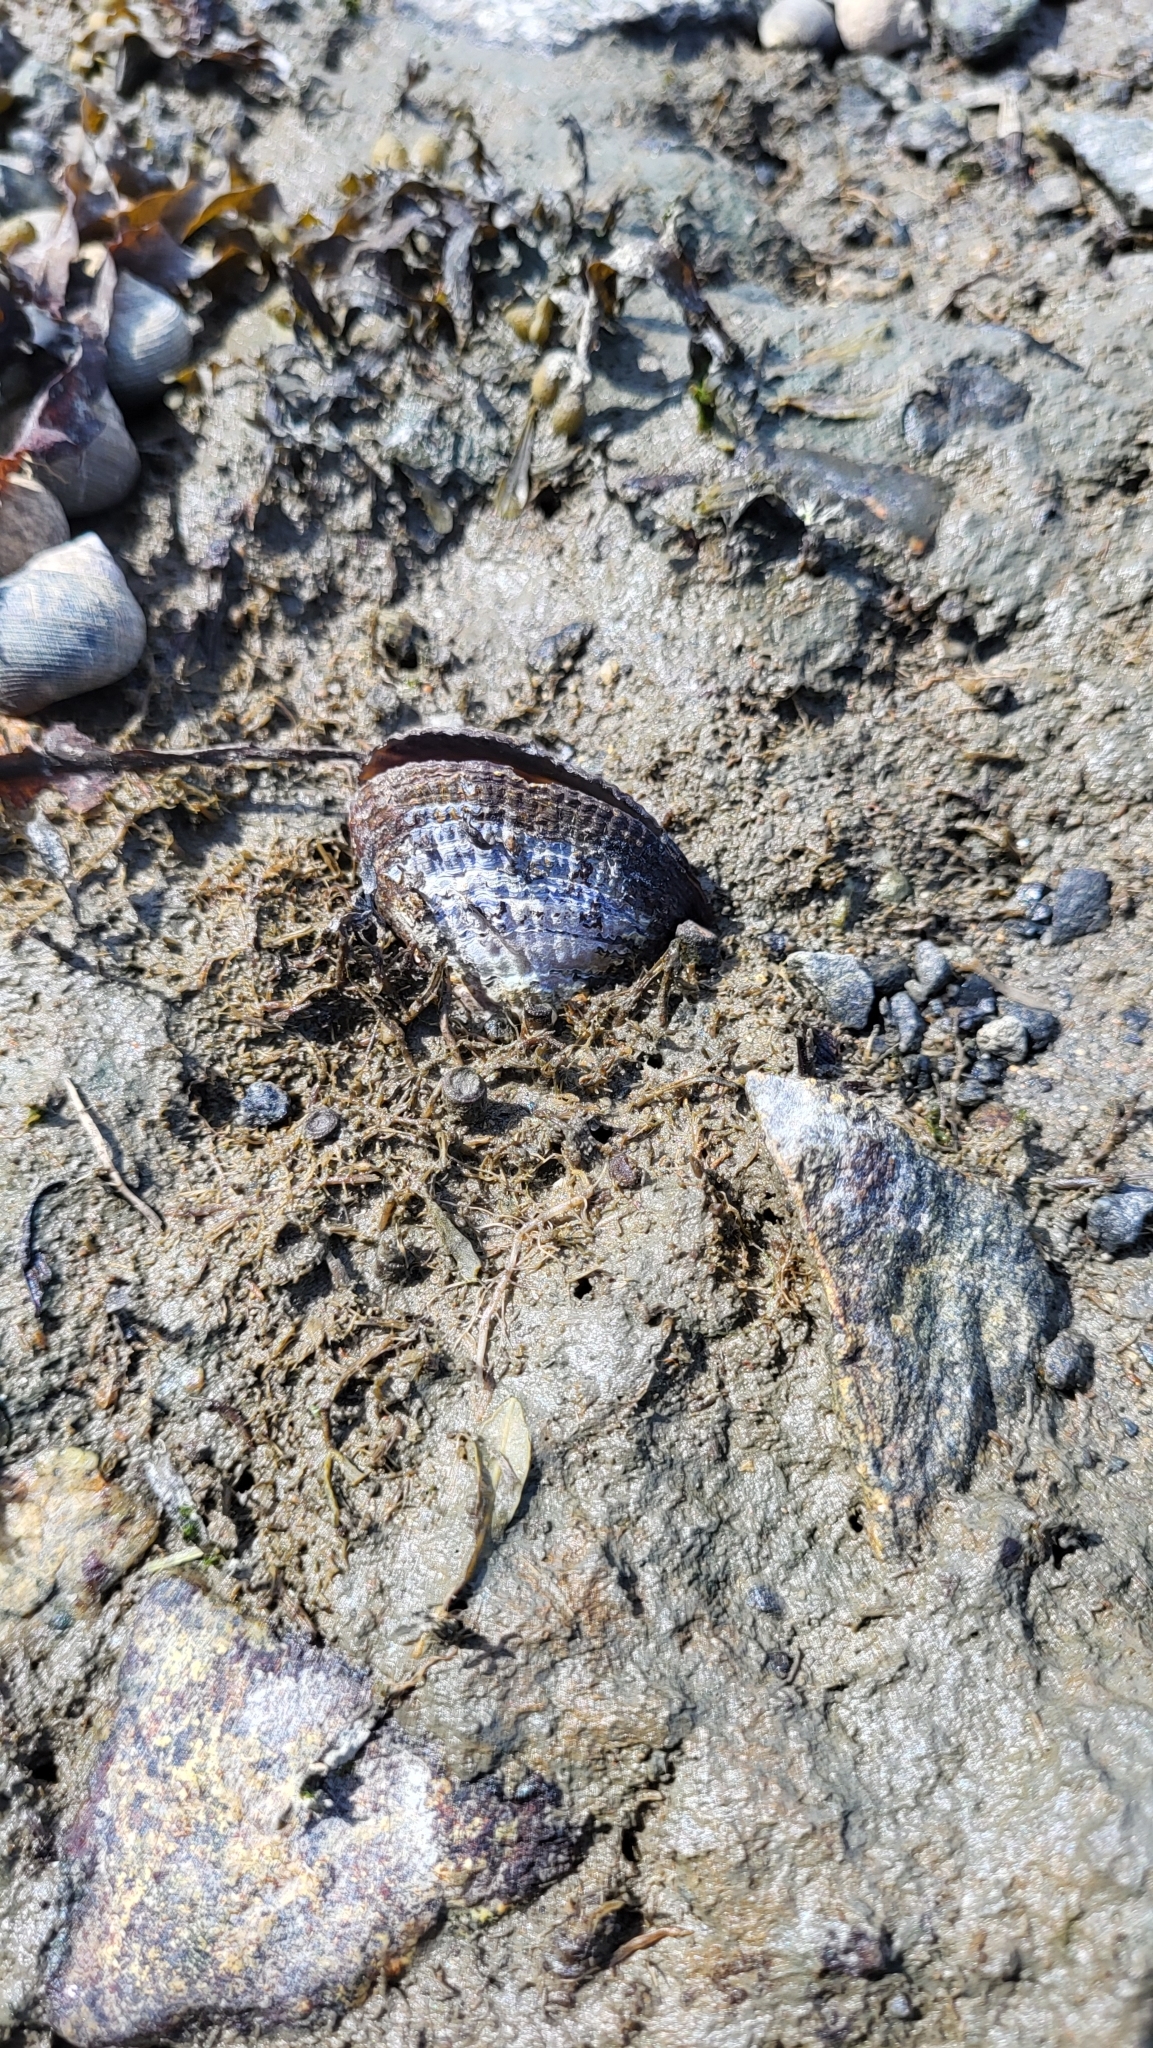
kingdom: Animalia
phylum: Mollusca
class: Bivalvia
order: Mytilida
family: Mytilidae
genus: Geukensia
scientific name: Geukensia demissa
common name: Ribbed mussel
